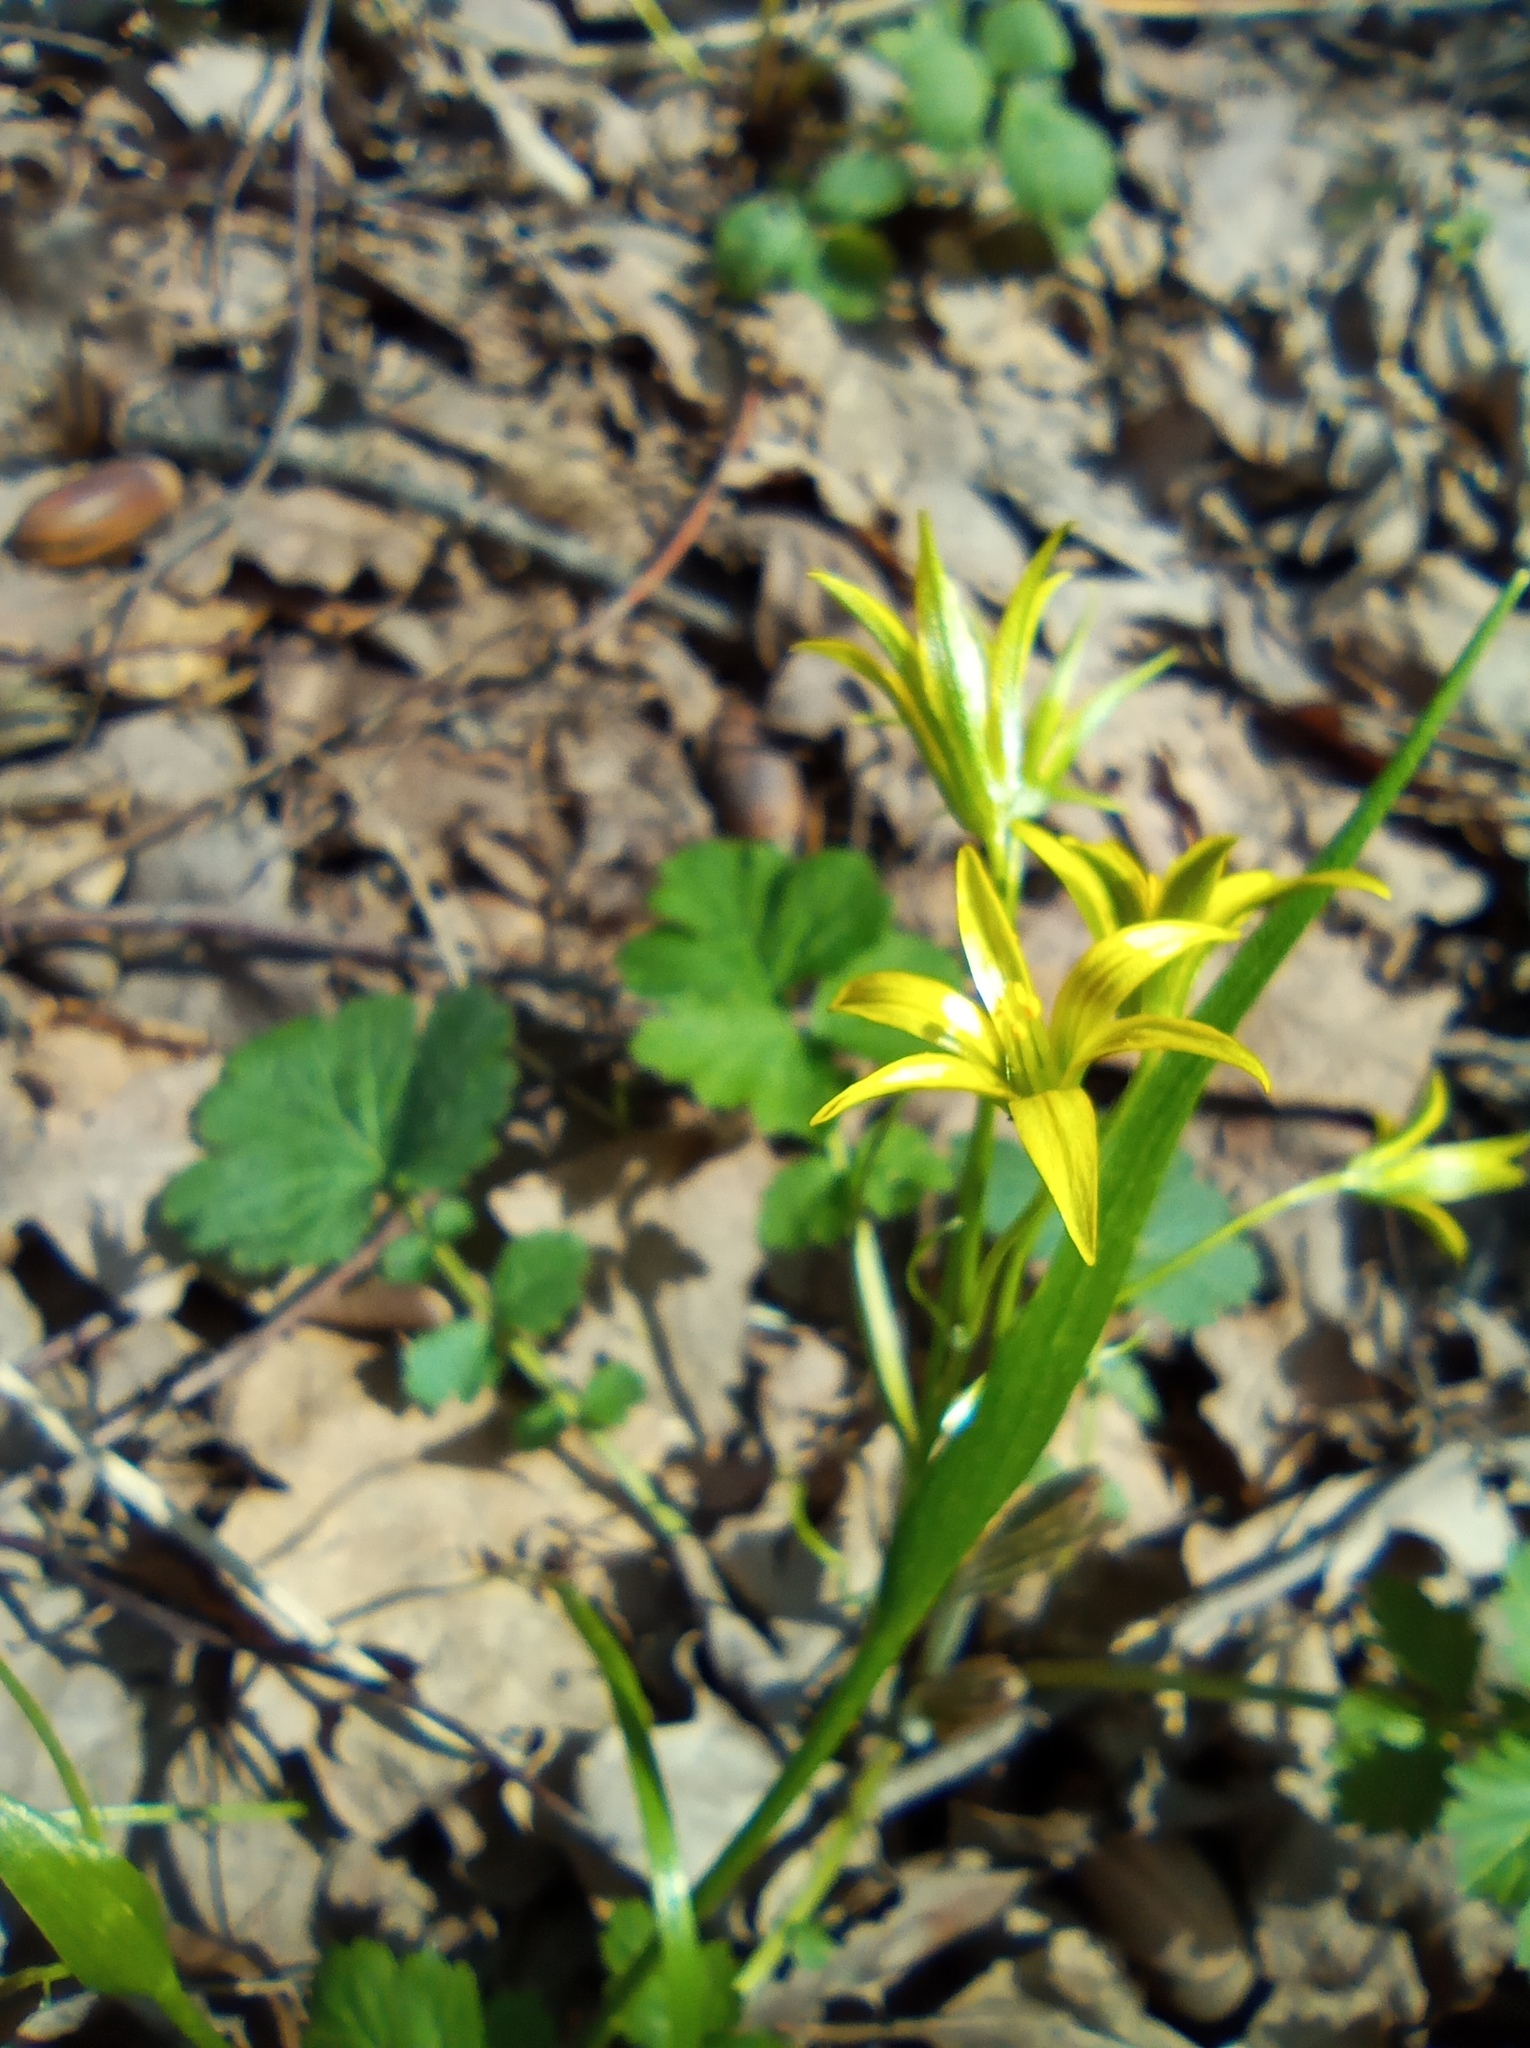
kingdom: Plantae
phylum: Tracheophyta
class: Liliopsida
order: Liliales
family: Liliaceae
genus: Gagea
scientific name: Gagea minima
